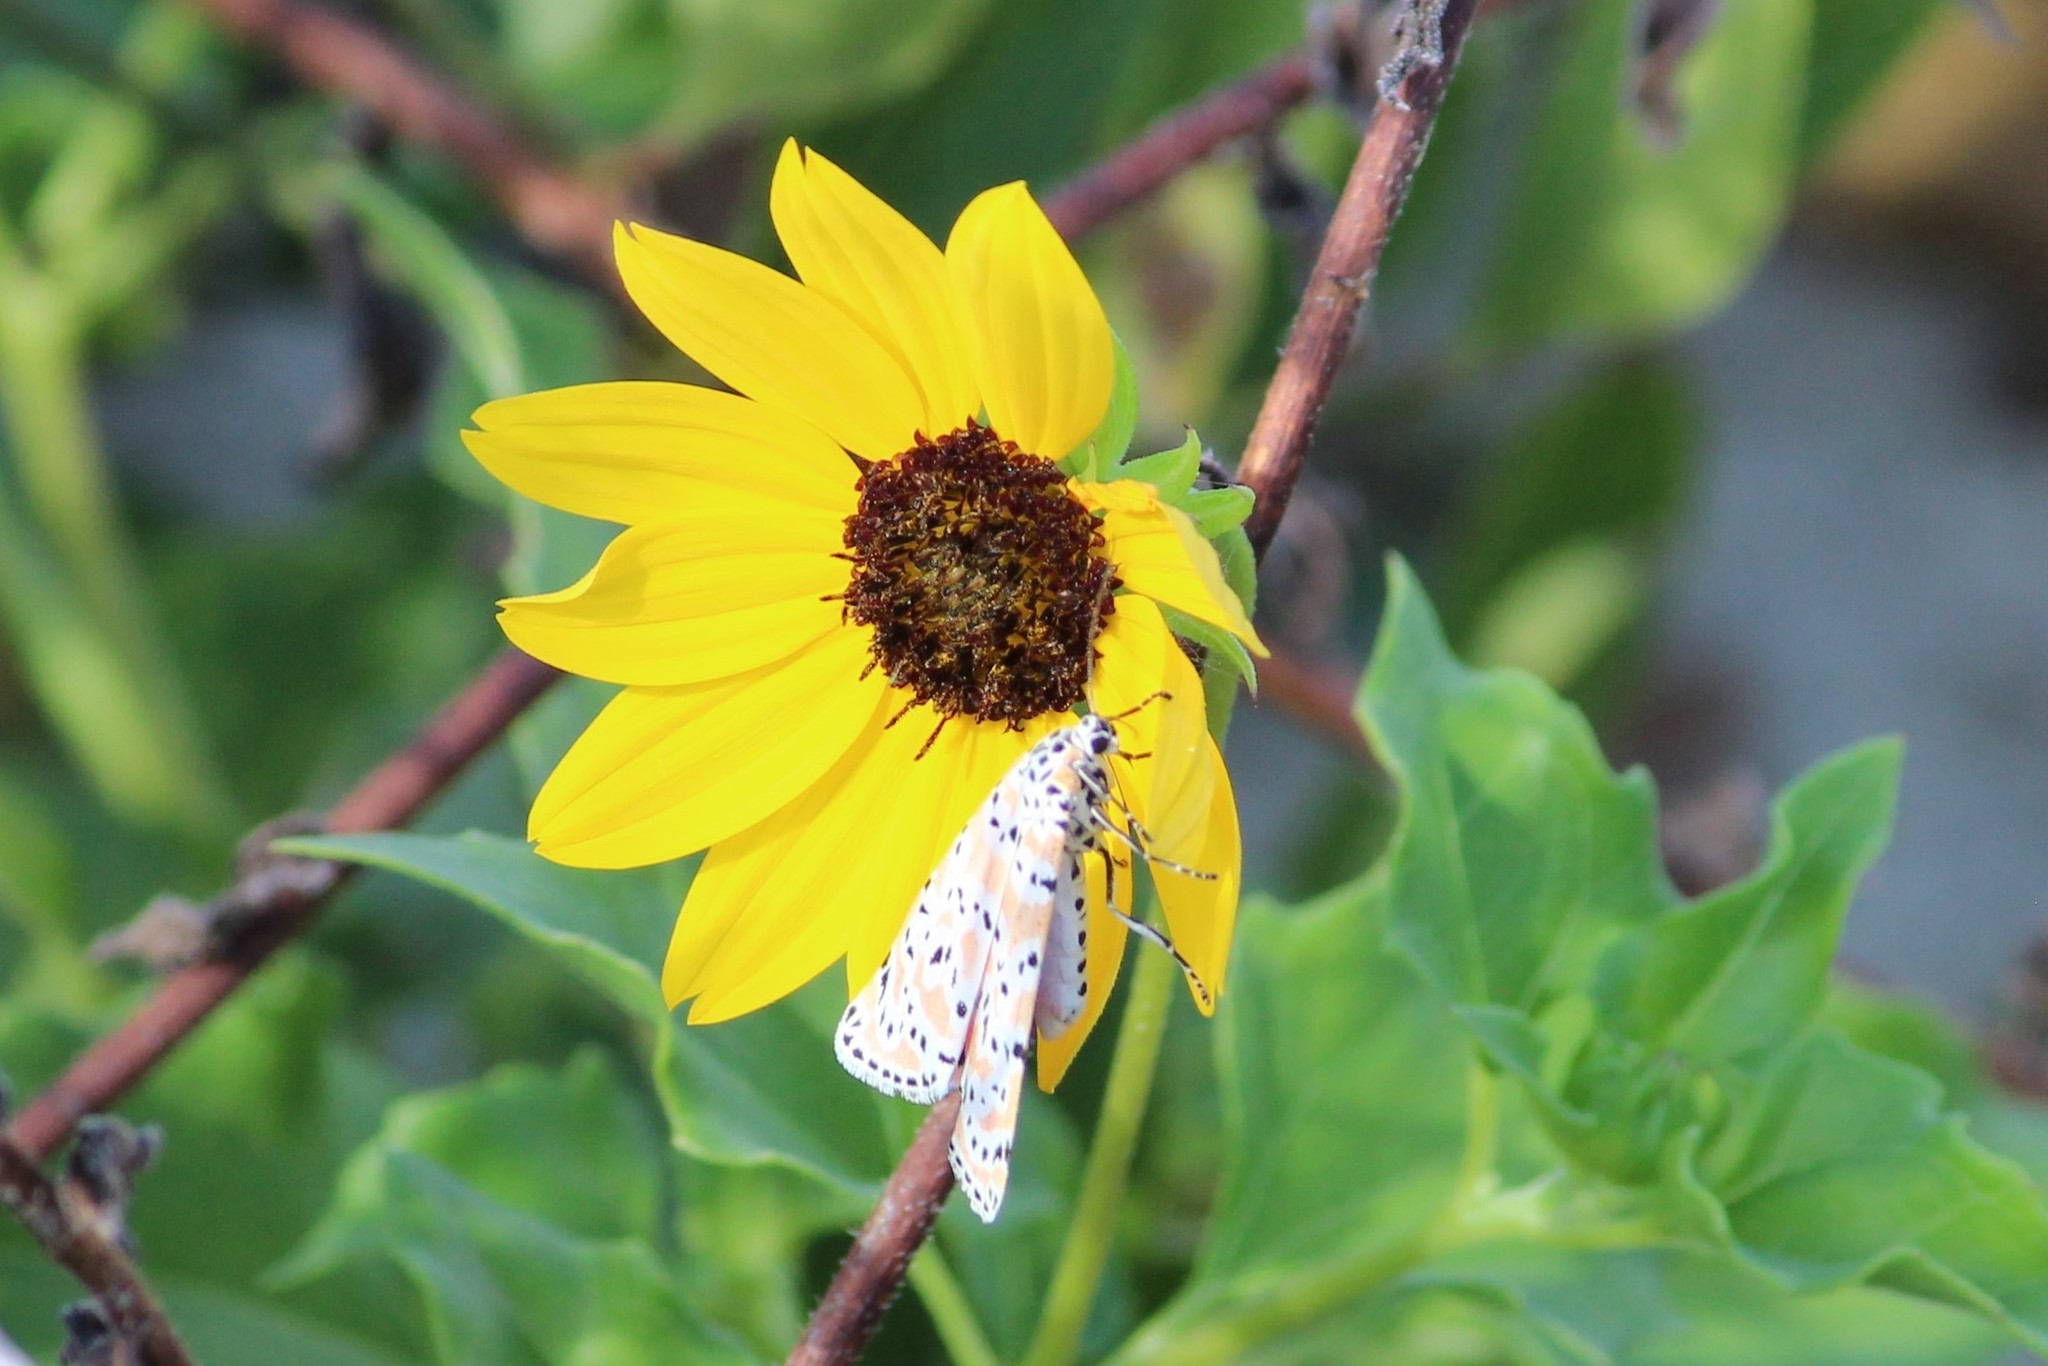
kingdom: Animalia
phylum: Arthropoda
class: Insecta
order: Lepidoptera
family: Erebidae
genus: Utetheisa
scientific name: Utetheisa ornatrix
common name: Beautiful utetheisa
